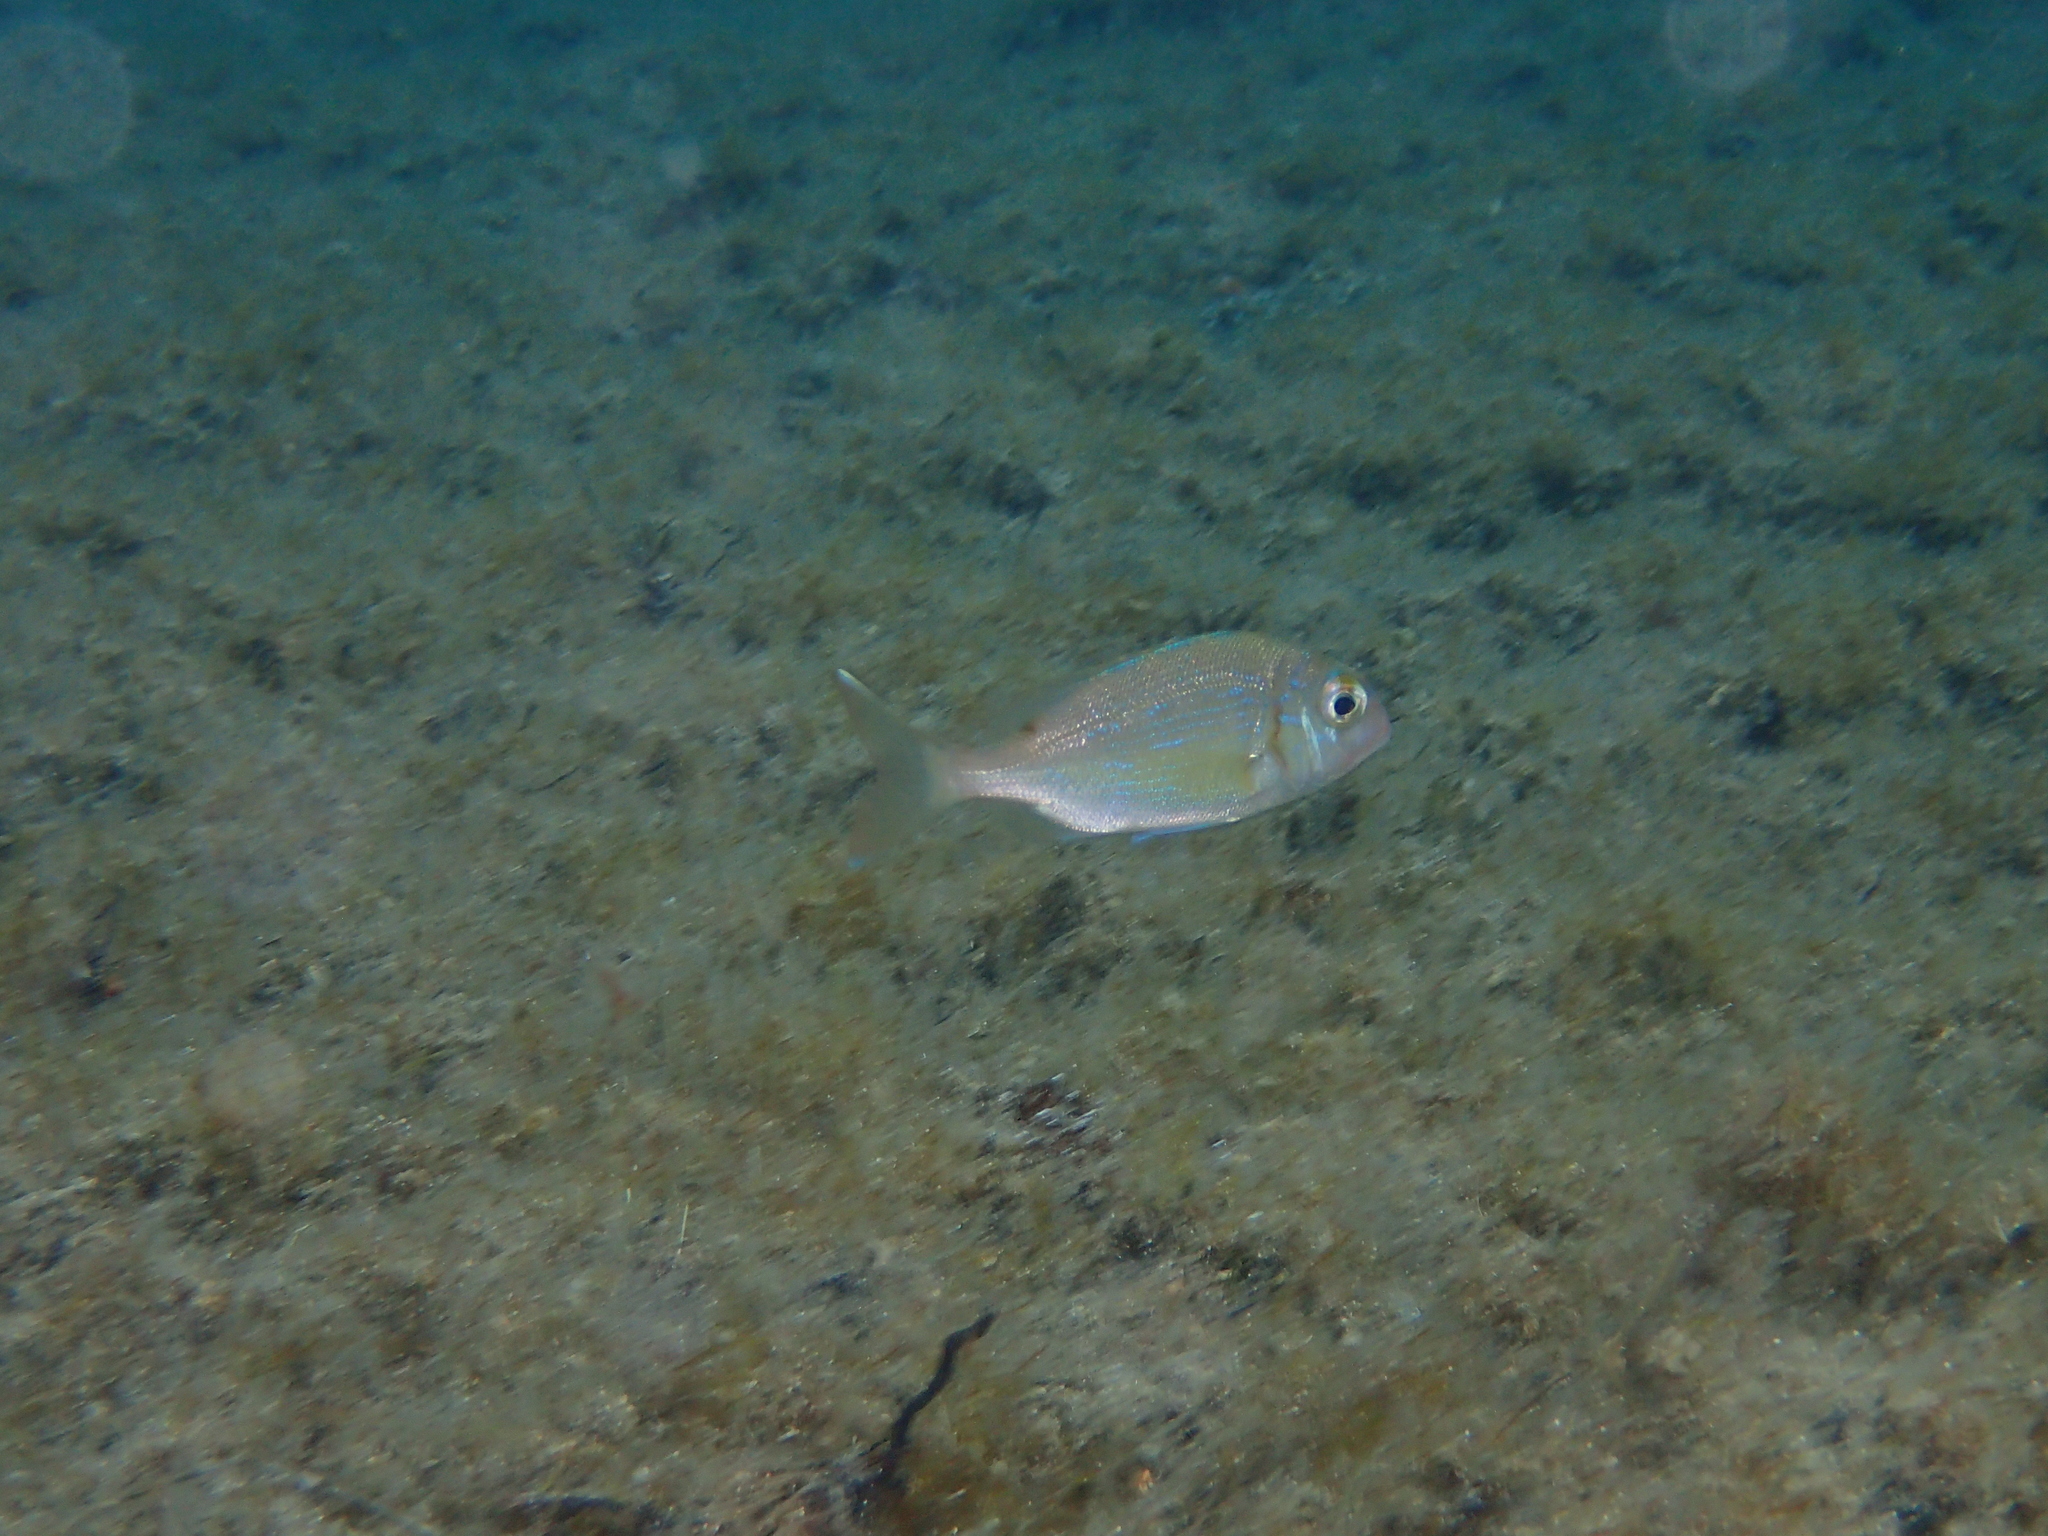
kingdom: Animalia
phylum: Chordata
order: Perciformes
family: Sparidae
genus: Pagrus
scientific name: Pagrus pagrus
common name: Red porgy
